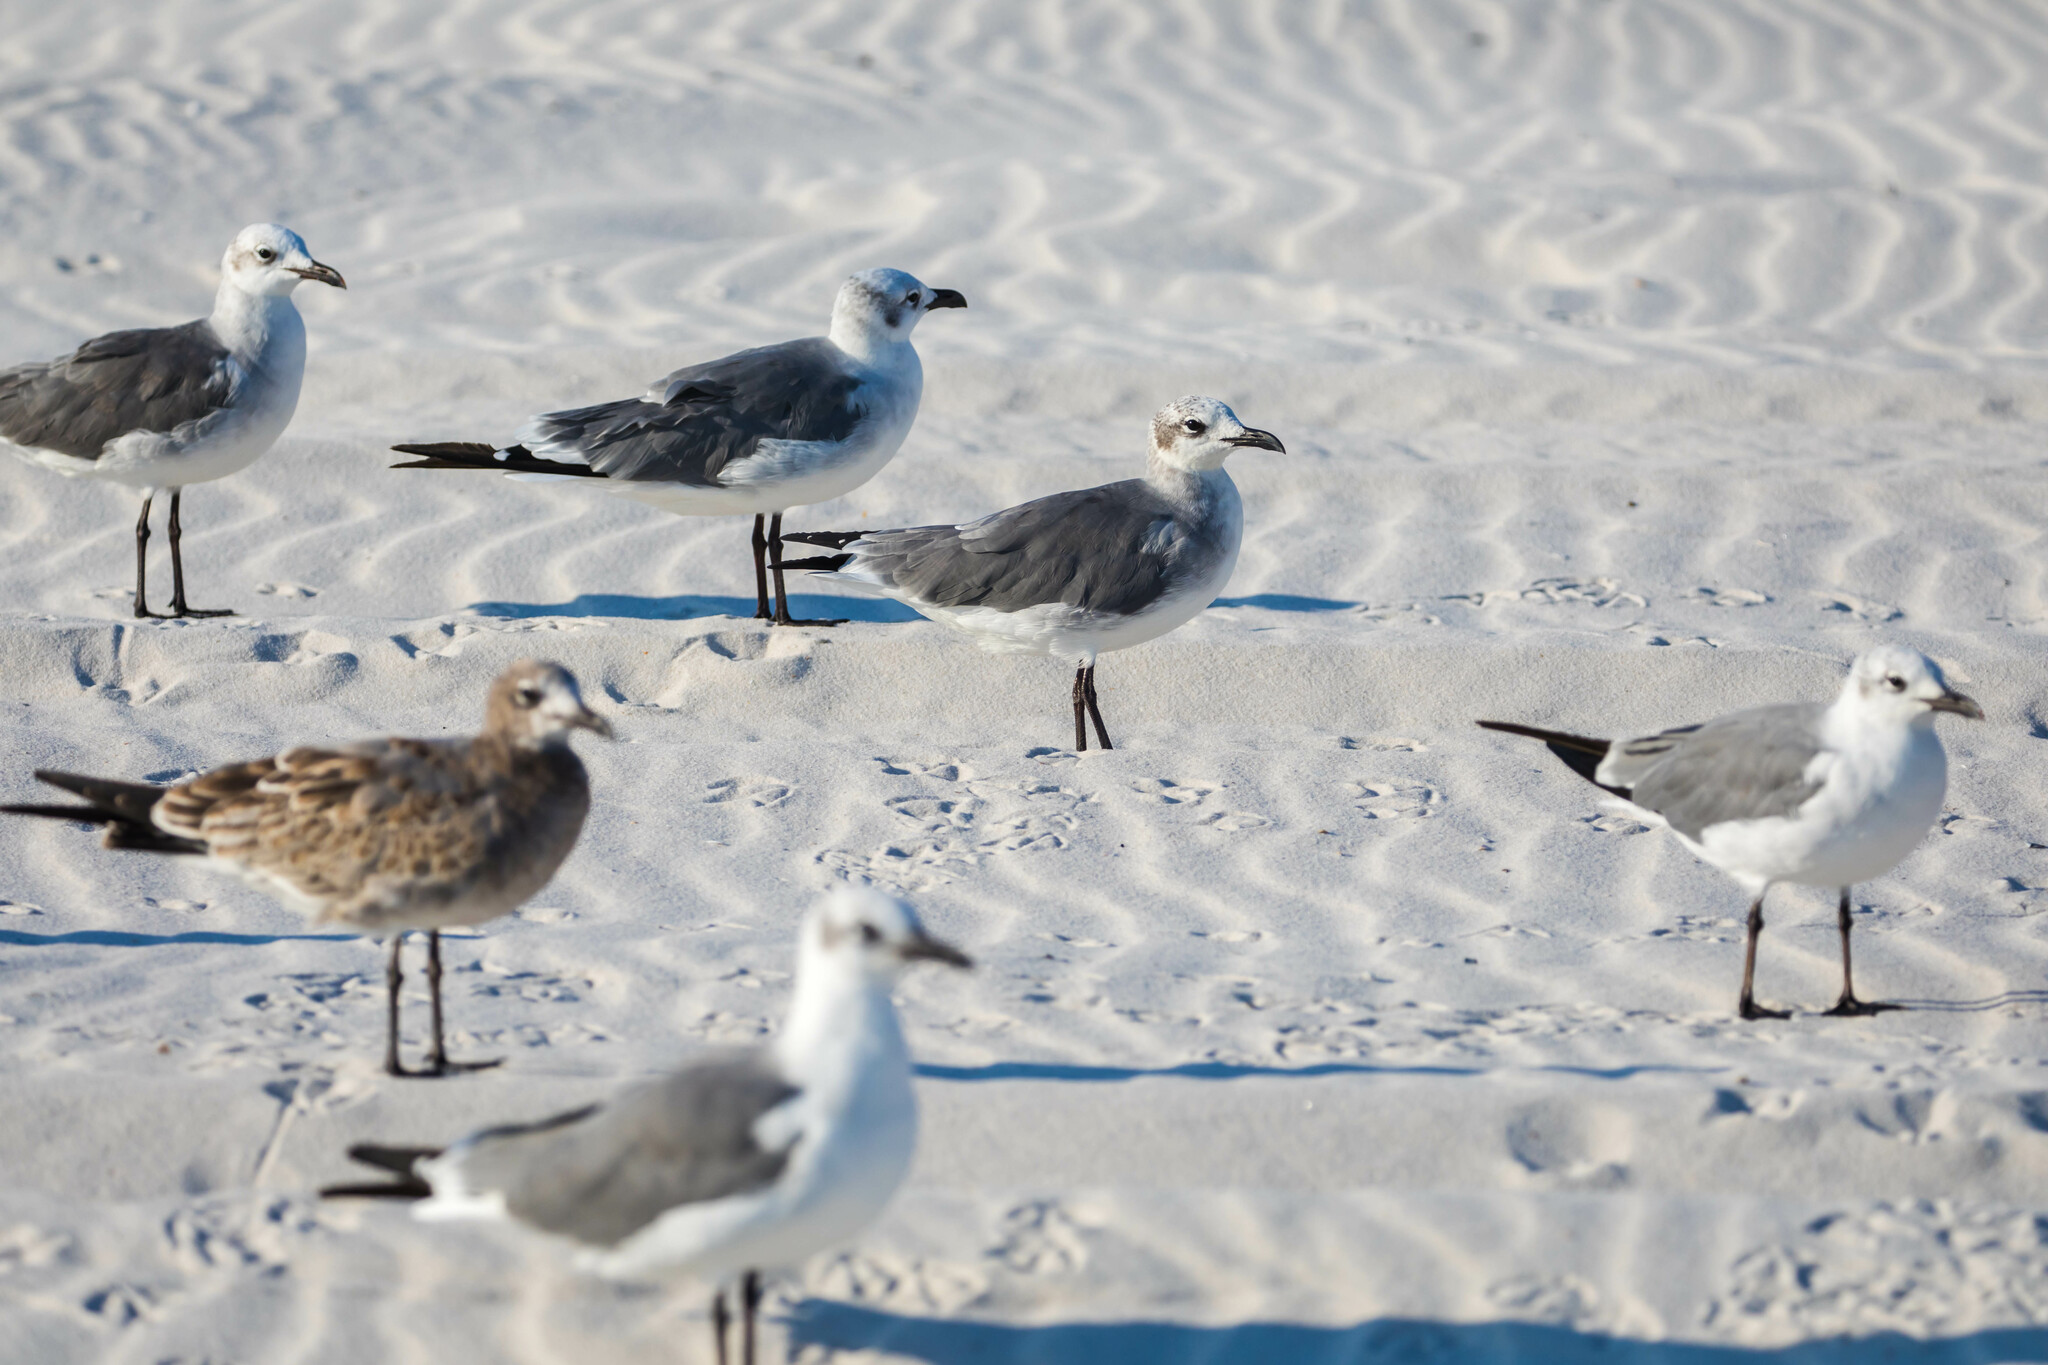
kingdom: Animalia
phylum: Chordata
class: Aves
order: Charadriiformes
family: Laridae
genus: Leucophaeus
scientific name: Leucophaeus atricilla
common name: Laughing gull
